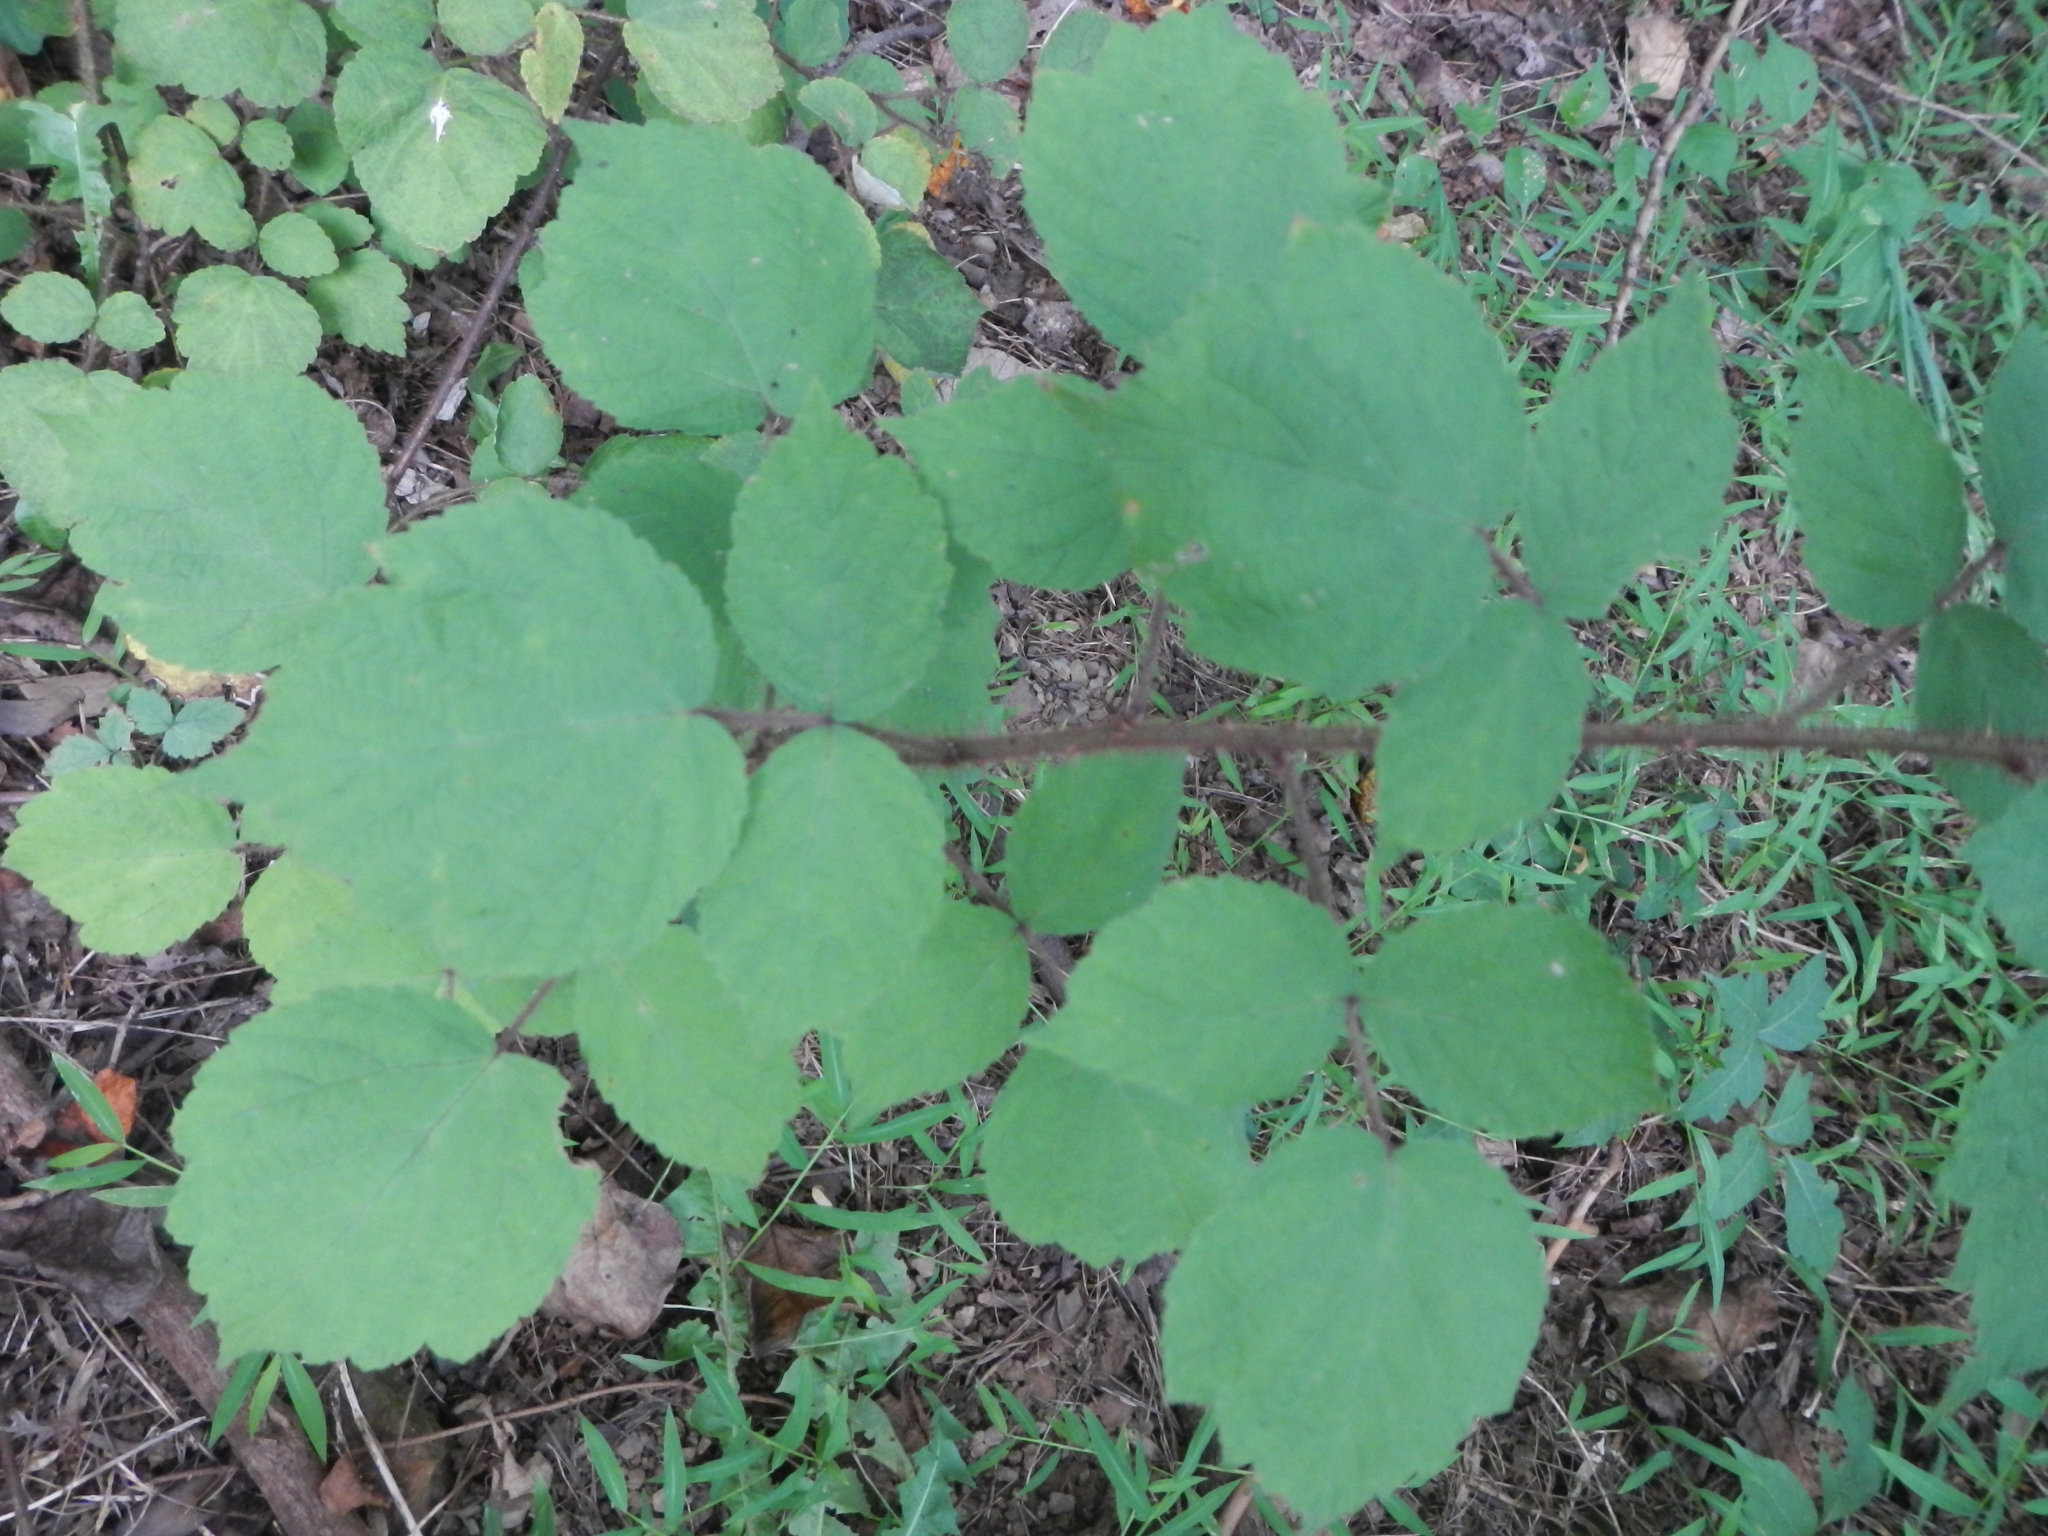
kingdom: Plantae
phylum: Tracheophyta
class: Magnoliopsida
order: Rosales
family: Rosaceae
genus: Rubus
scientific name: Rubus phoenicolasius
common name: Japanese wineberry
